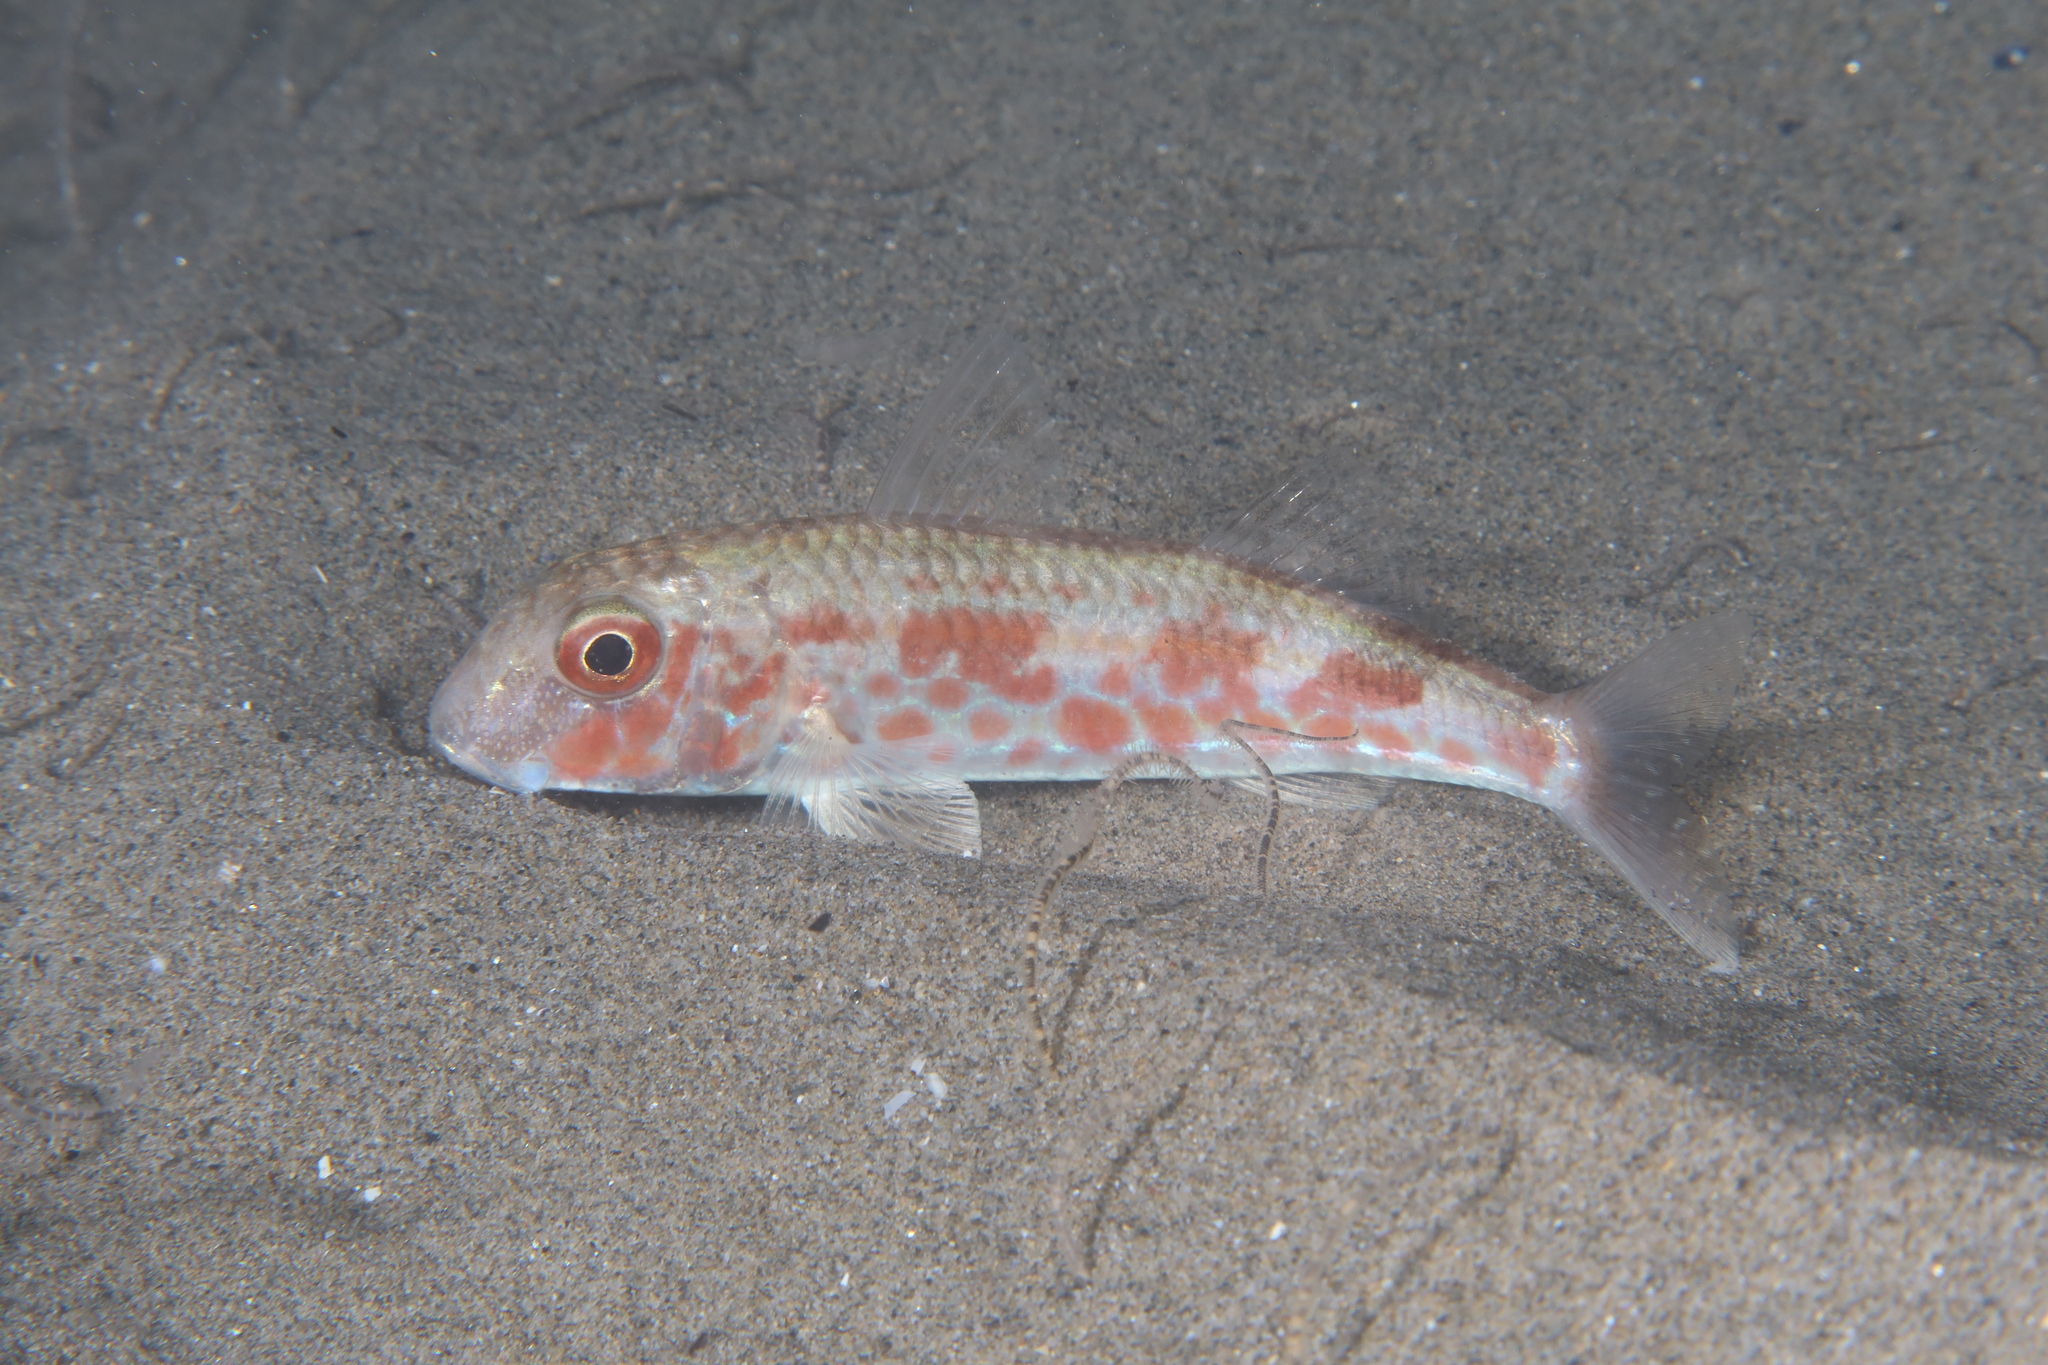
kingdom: Animalia
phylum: Chordata
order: Perciformes
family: Mullidae
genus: Mullus
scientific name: Mullus barbatus
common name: Blunt-snouted mullet
